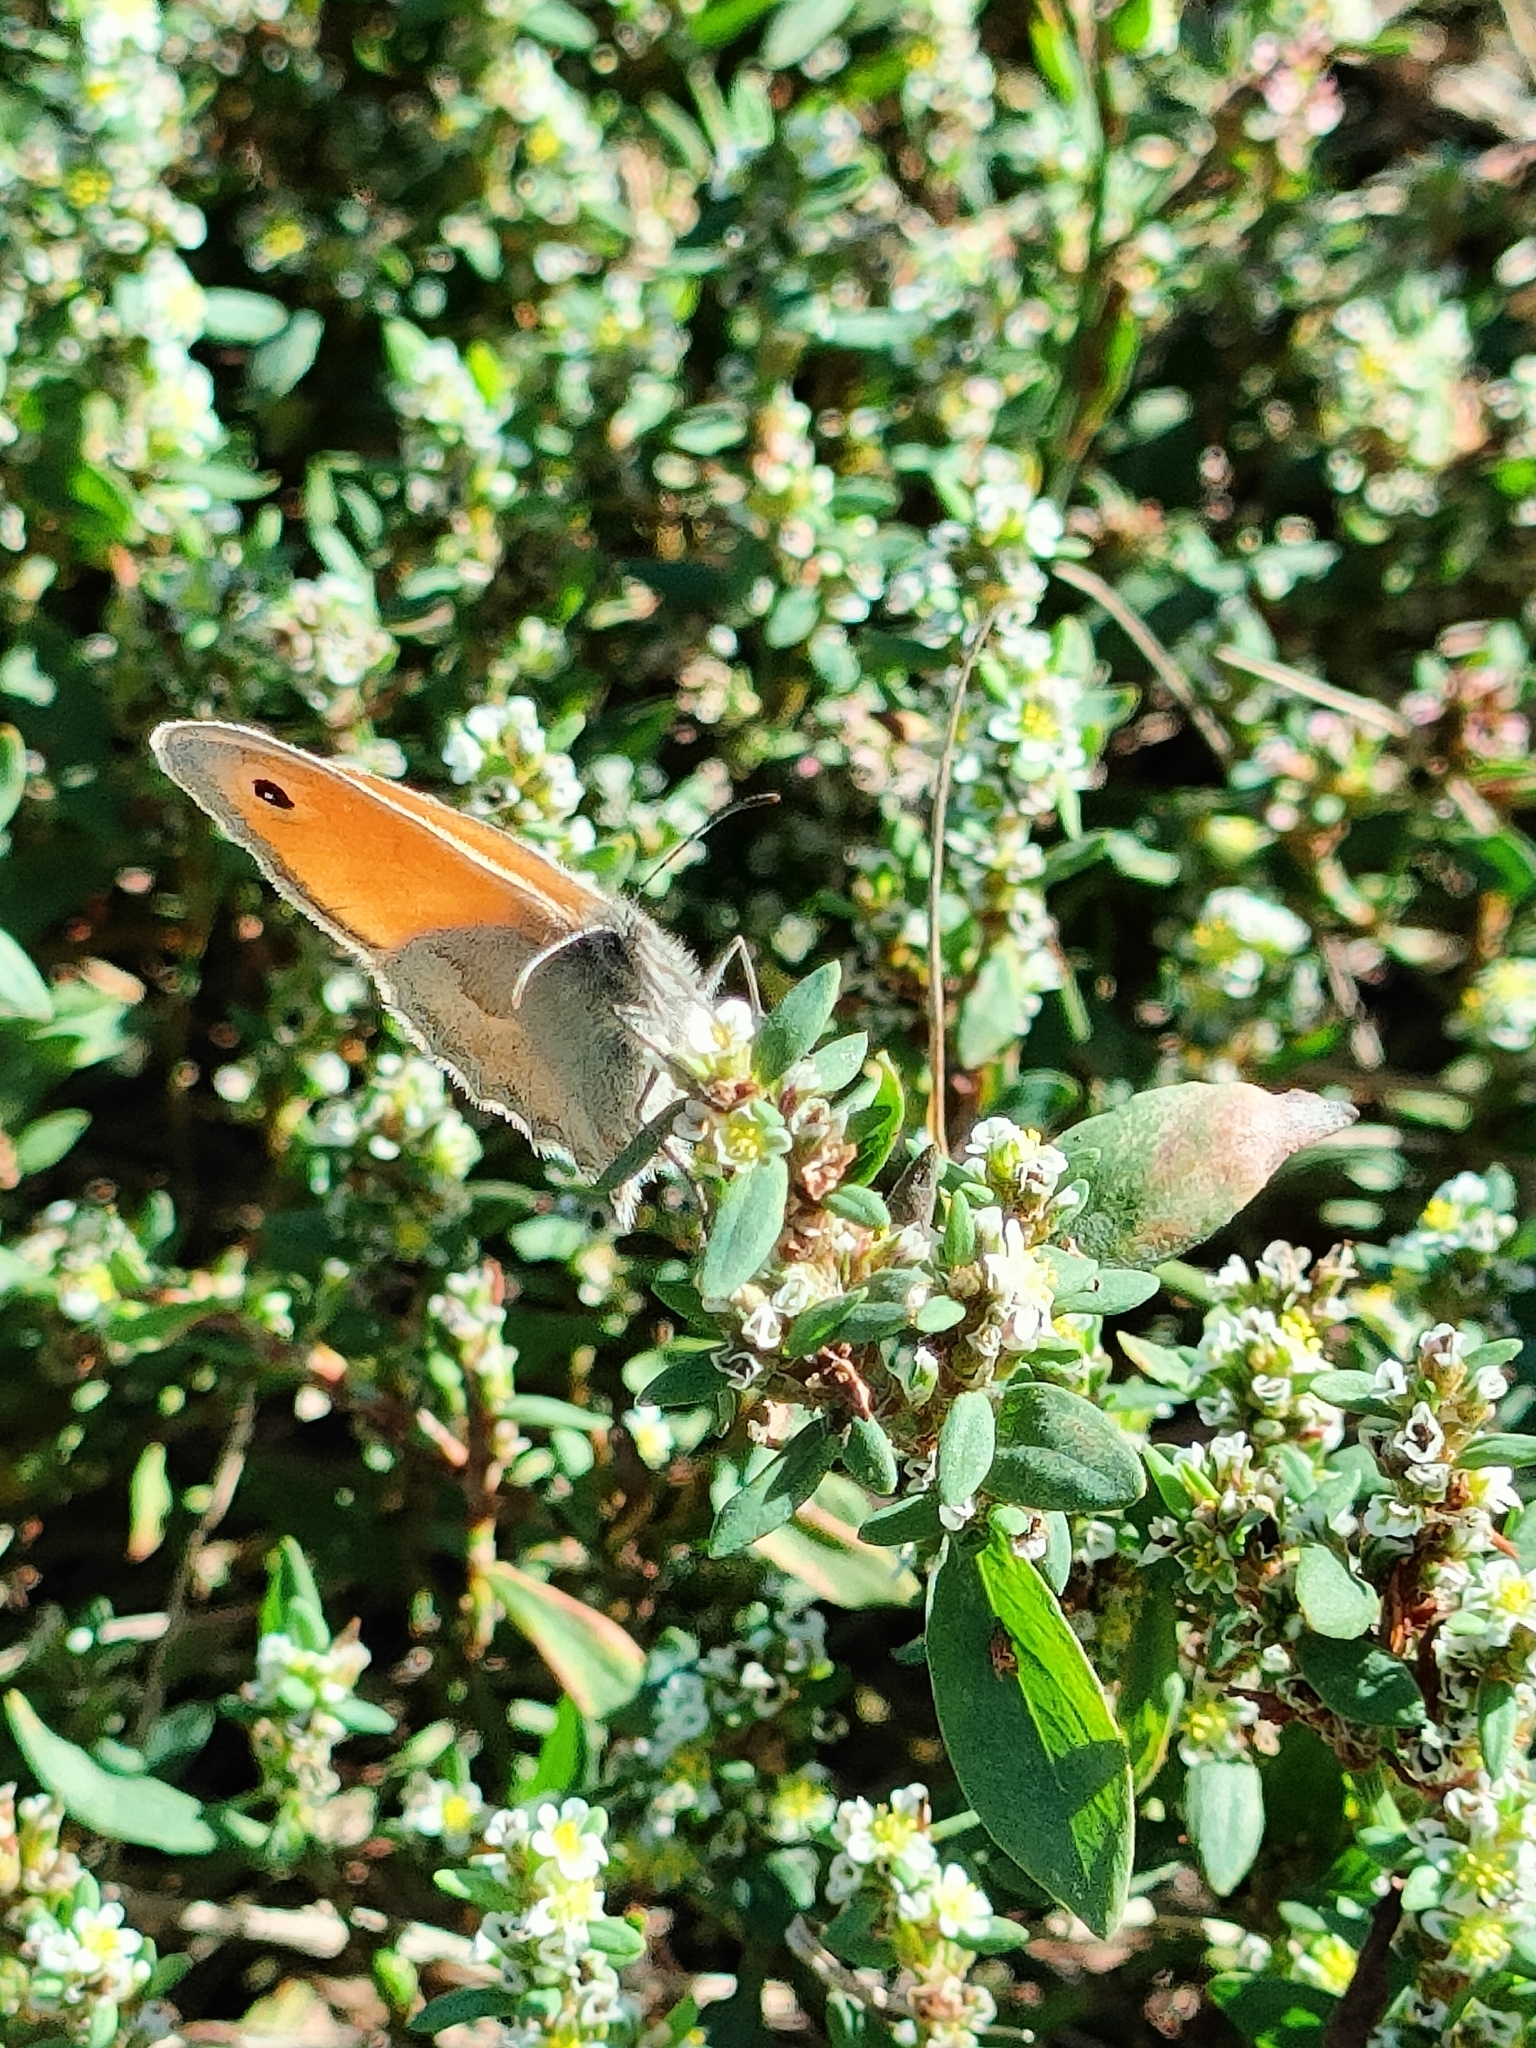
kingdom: Animalia
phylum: Arthropoda
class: Insecta
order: Lepidoptera
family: Nymphalidae
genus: Coenonympha
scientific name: Coenonympha pamphilus
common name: Small heath
